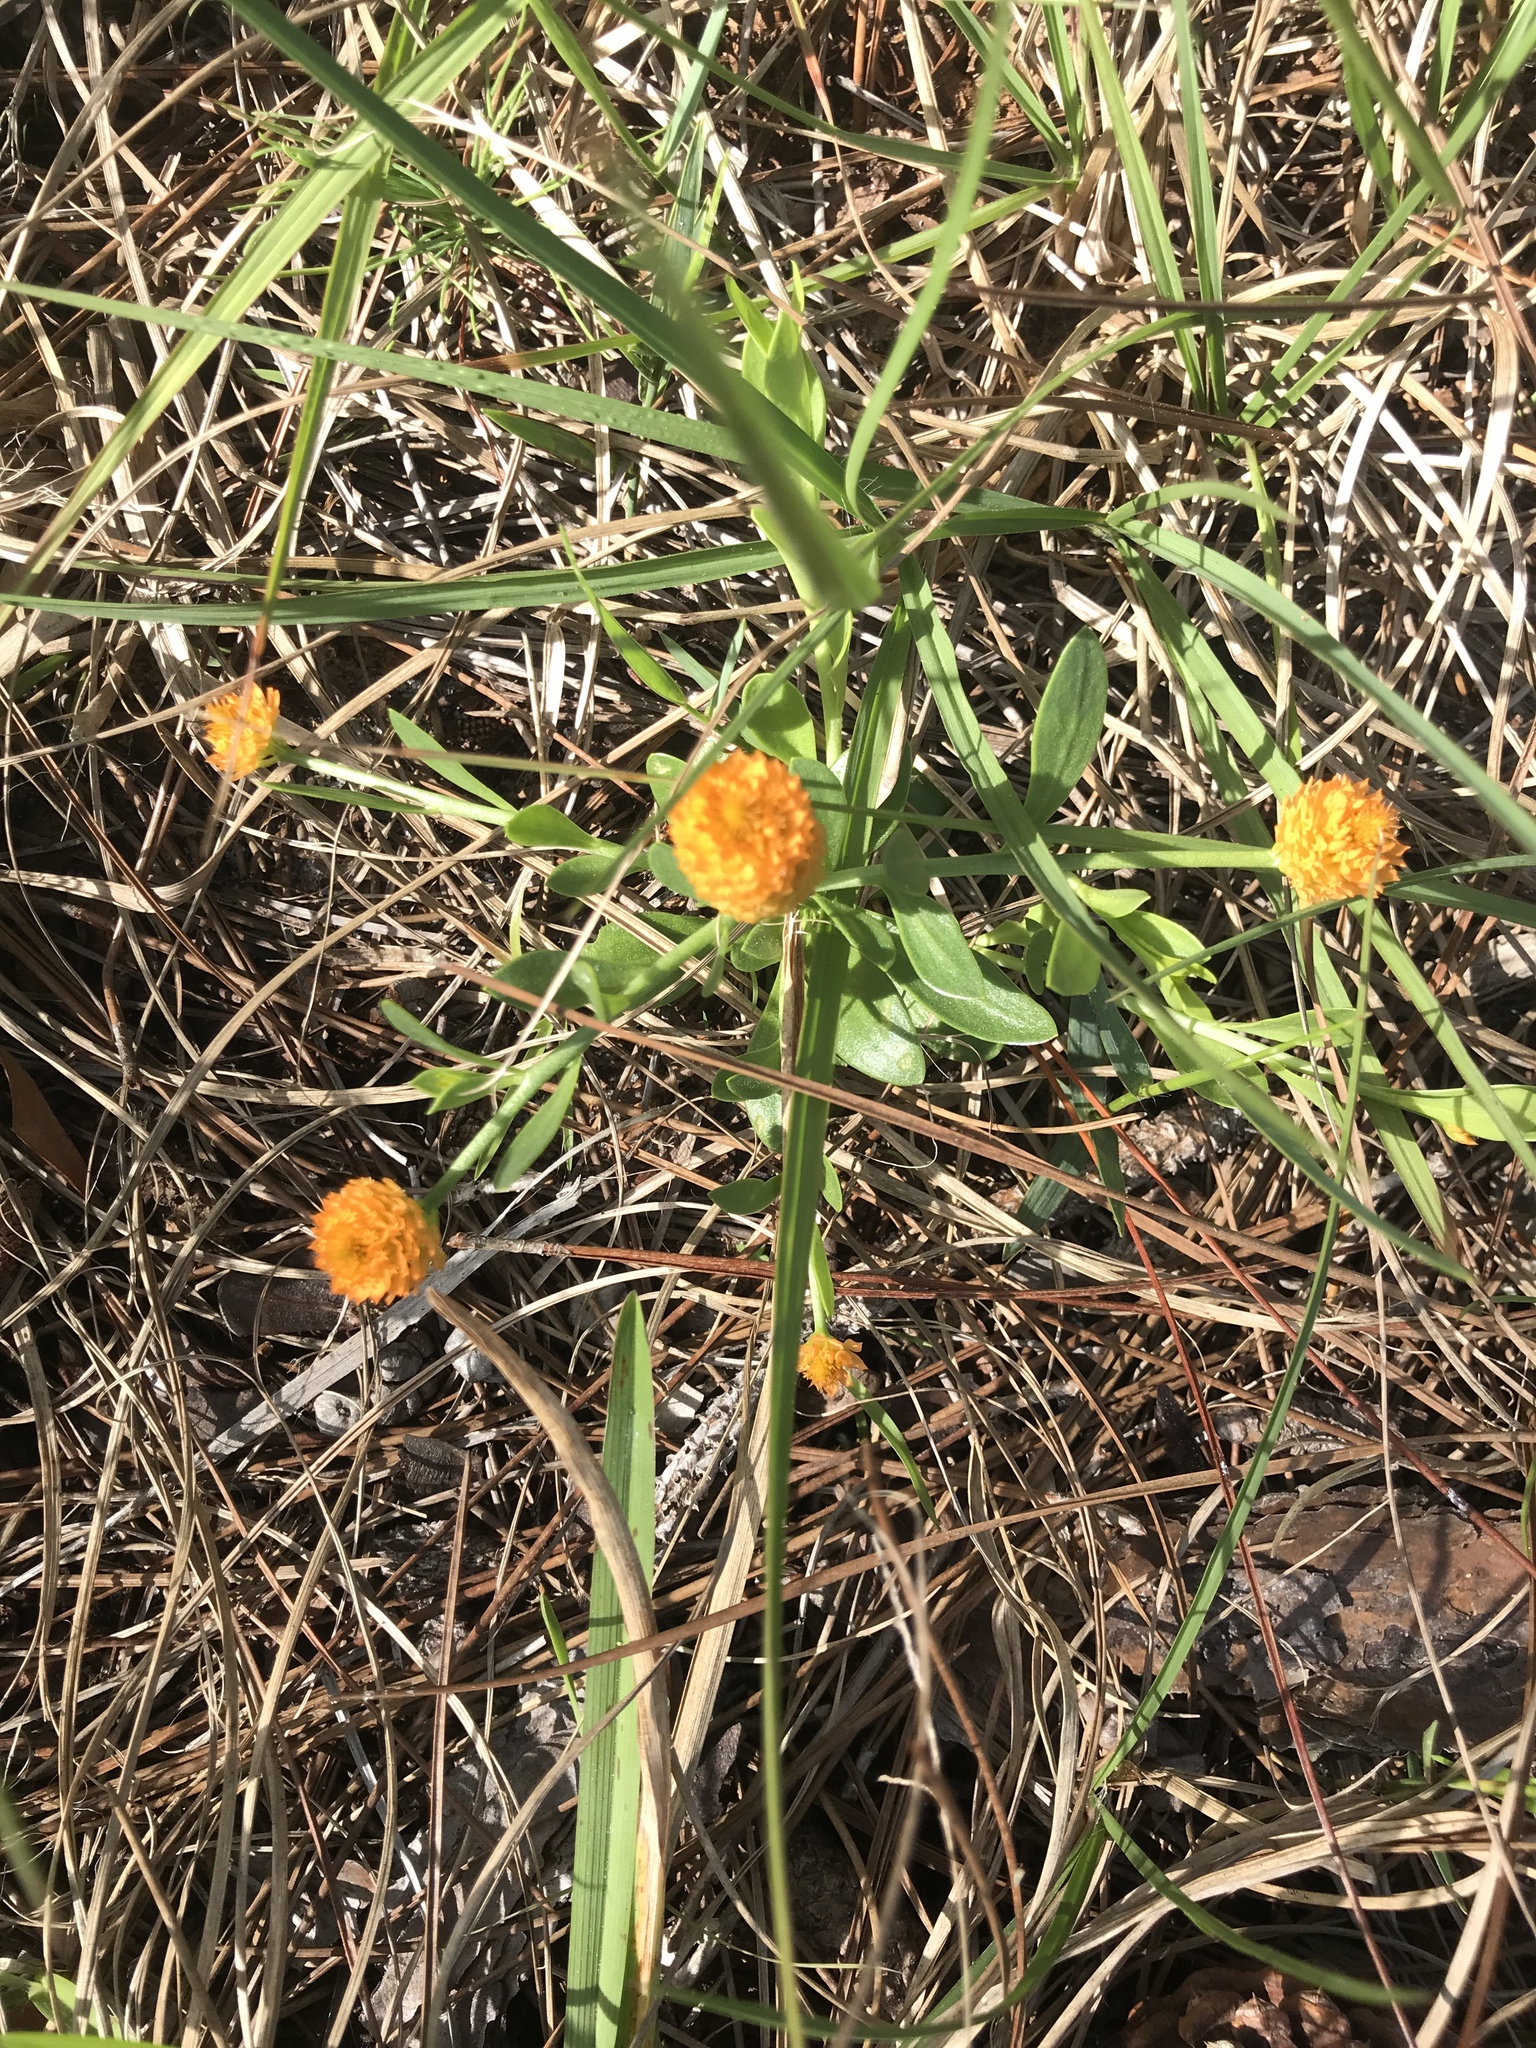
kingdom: Plantae
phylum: Tracheophyta
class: Magnoliopsida
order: Fabales
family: Polygalaceae
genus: Polygala
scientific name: Polygala lutea
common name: Orange milkwort
